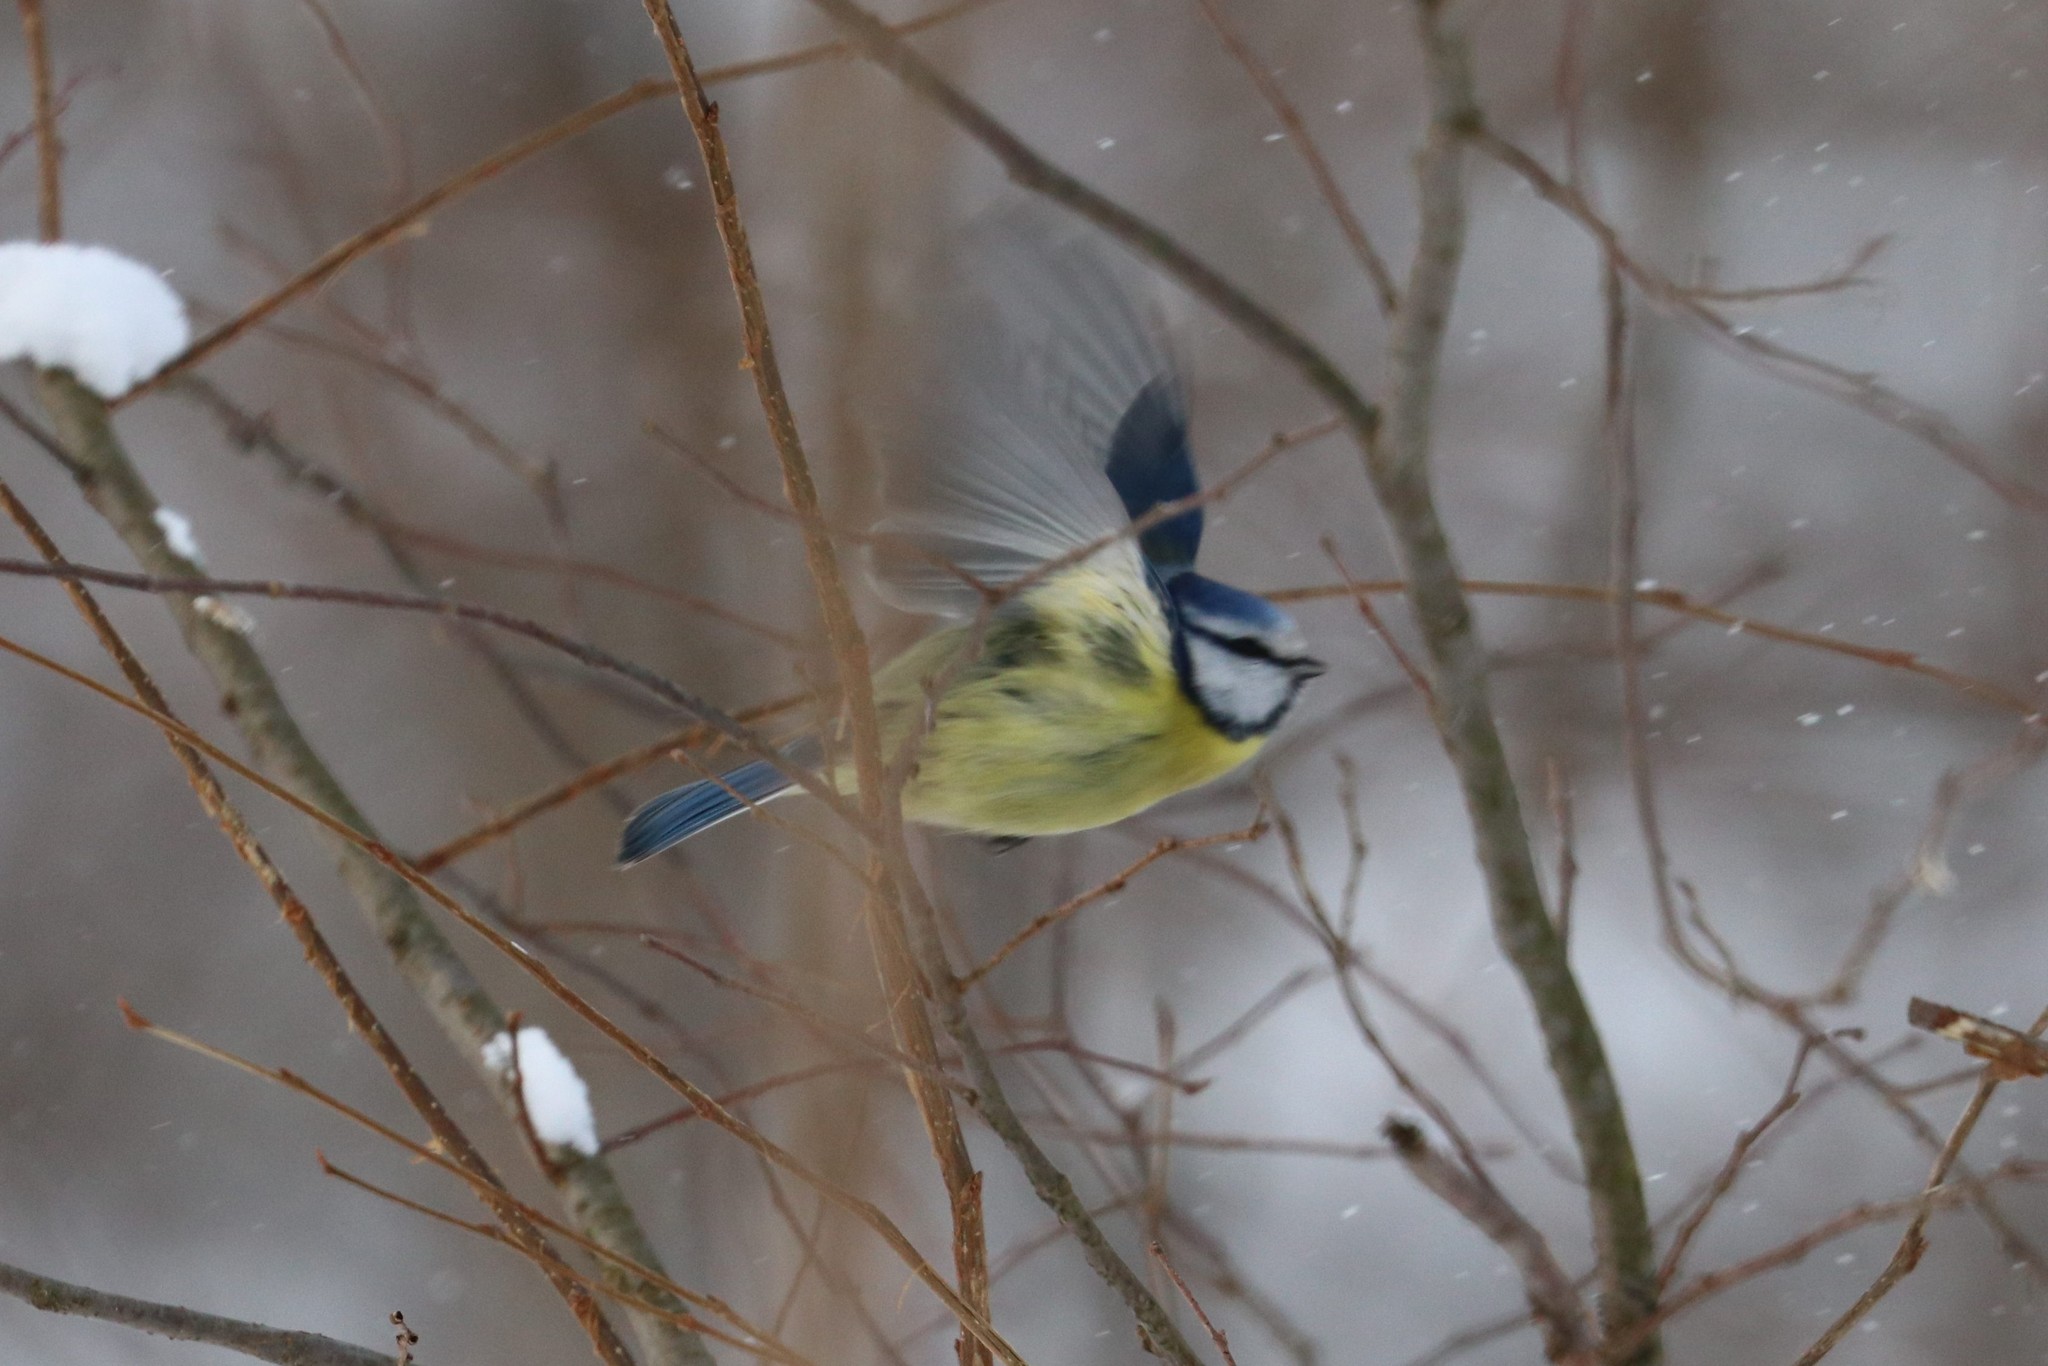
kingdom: Animalia
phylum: Chordata
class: Aves
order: Passeriformes
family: Paridae
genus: Cyanistes
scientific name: Cyanistes caeruleus
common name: Eurasian blue tit
